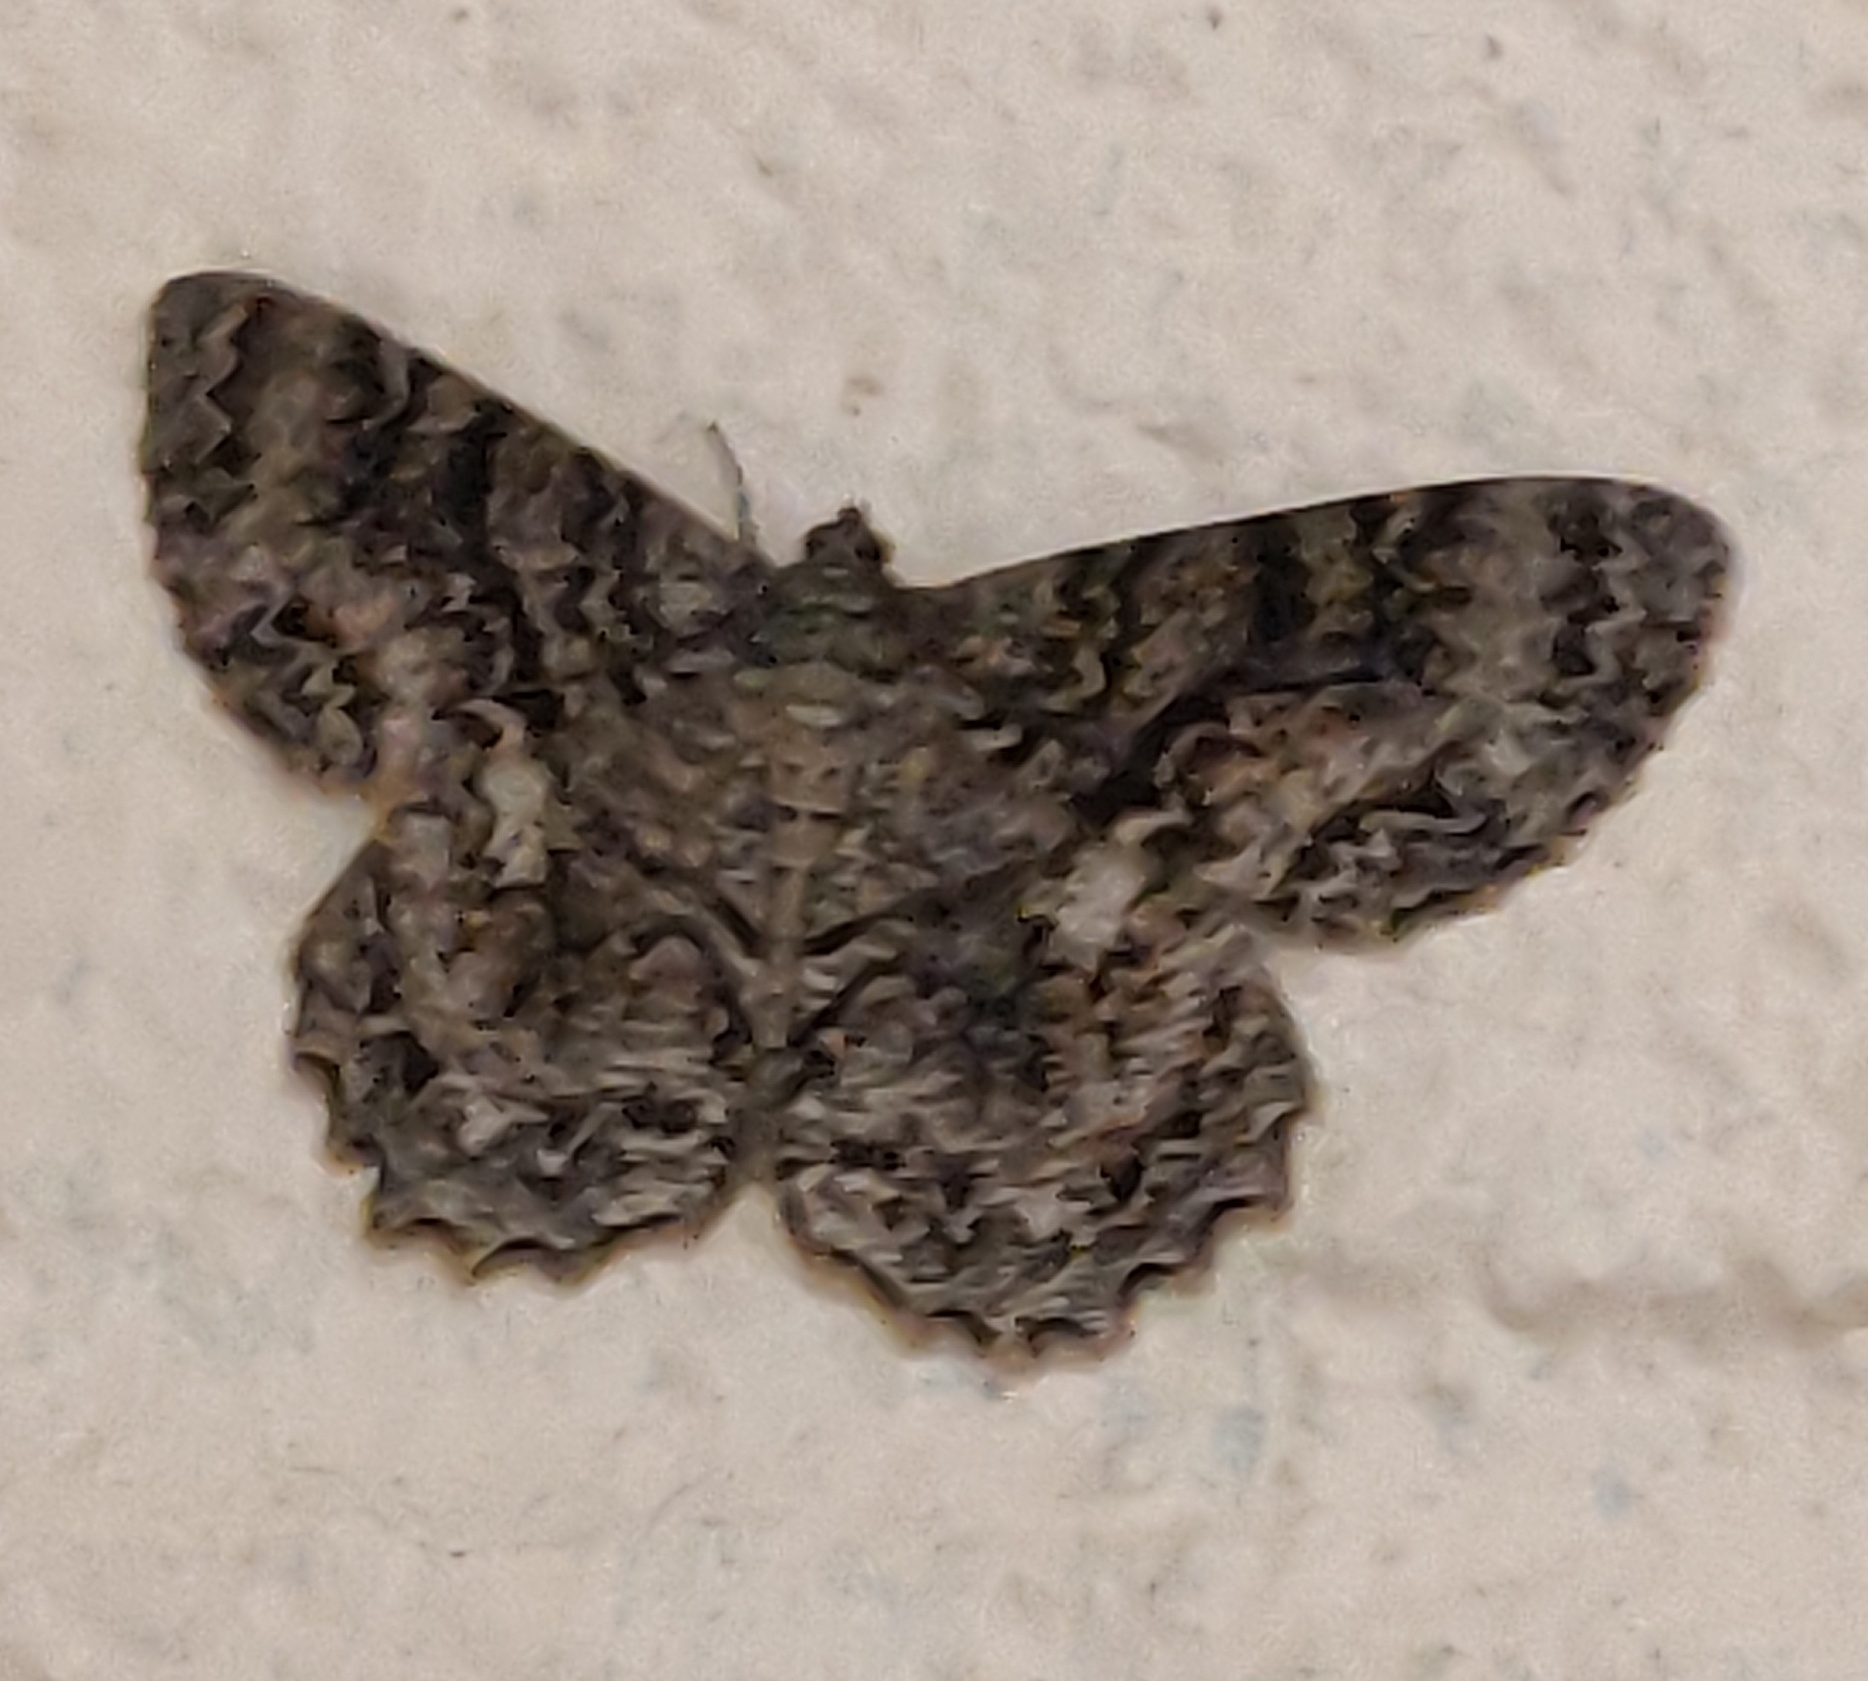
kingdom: Animalia
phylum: Arthropoda
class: Insecta
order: Lepidoptera
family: Geometridae
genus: Epimecis
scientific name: Epimecis hortaria
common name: Tulip-tree beauty
